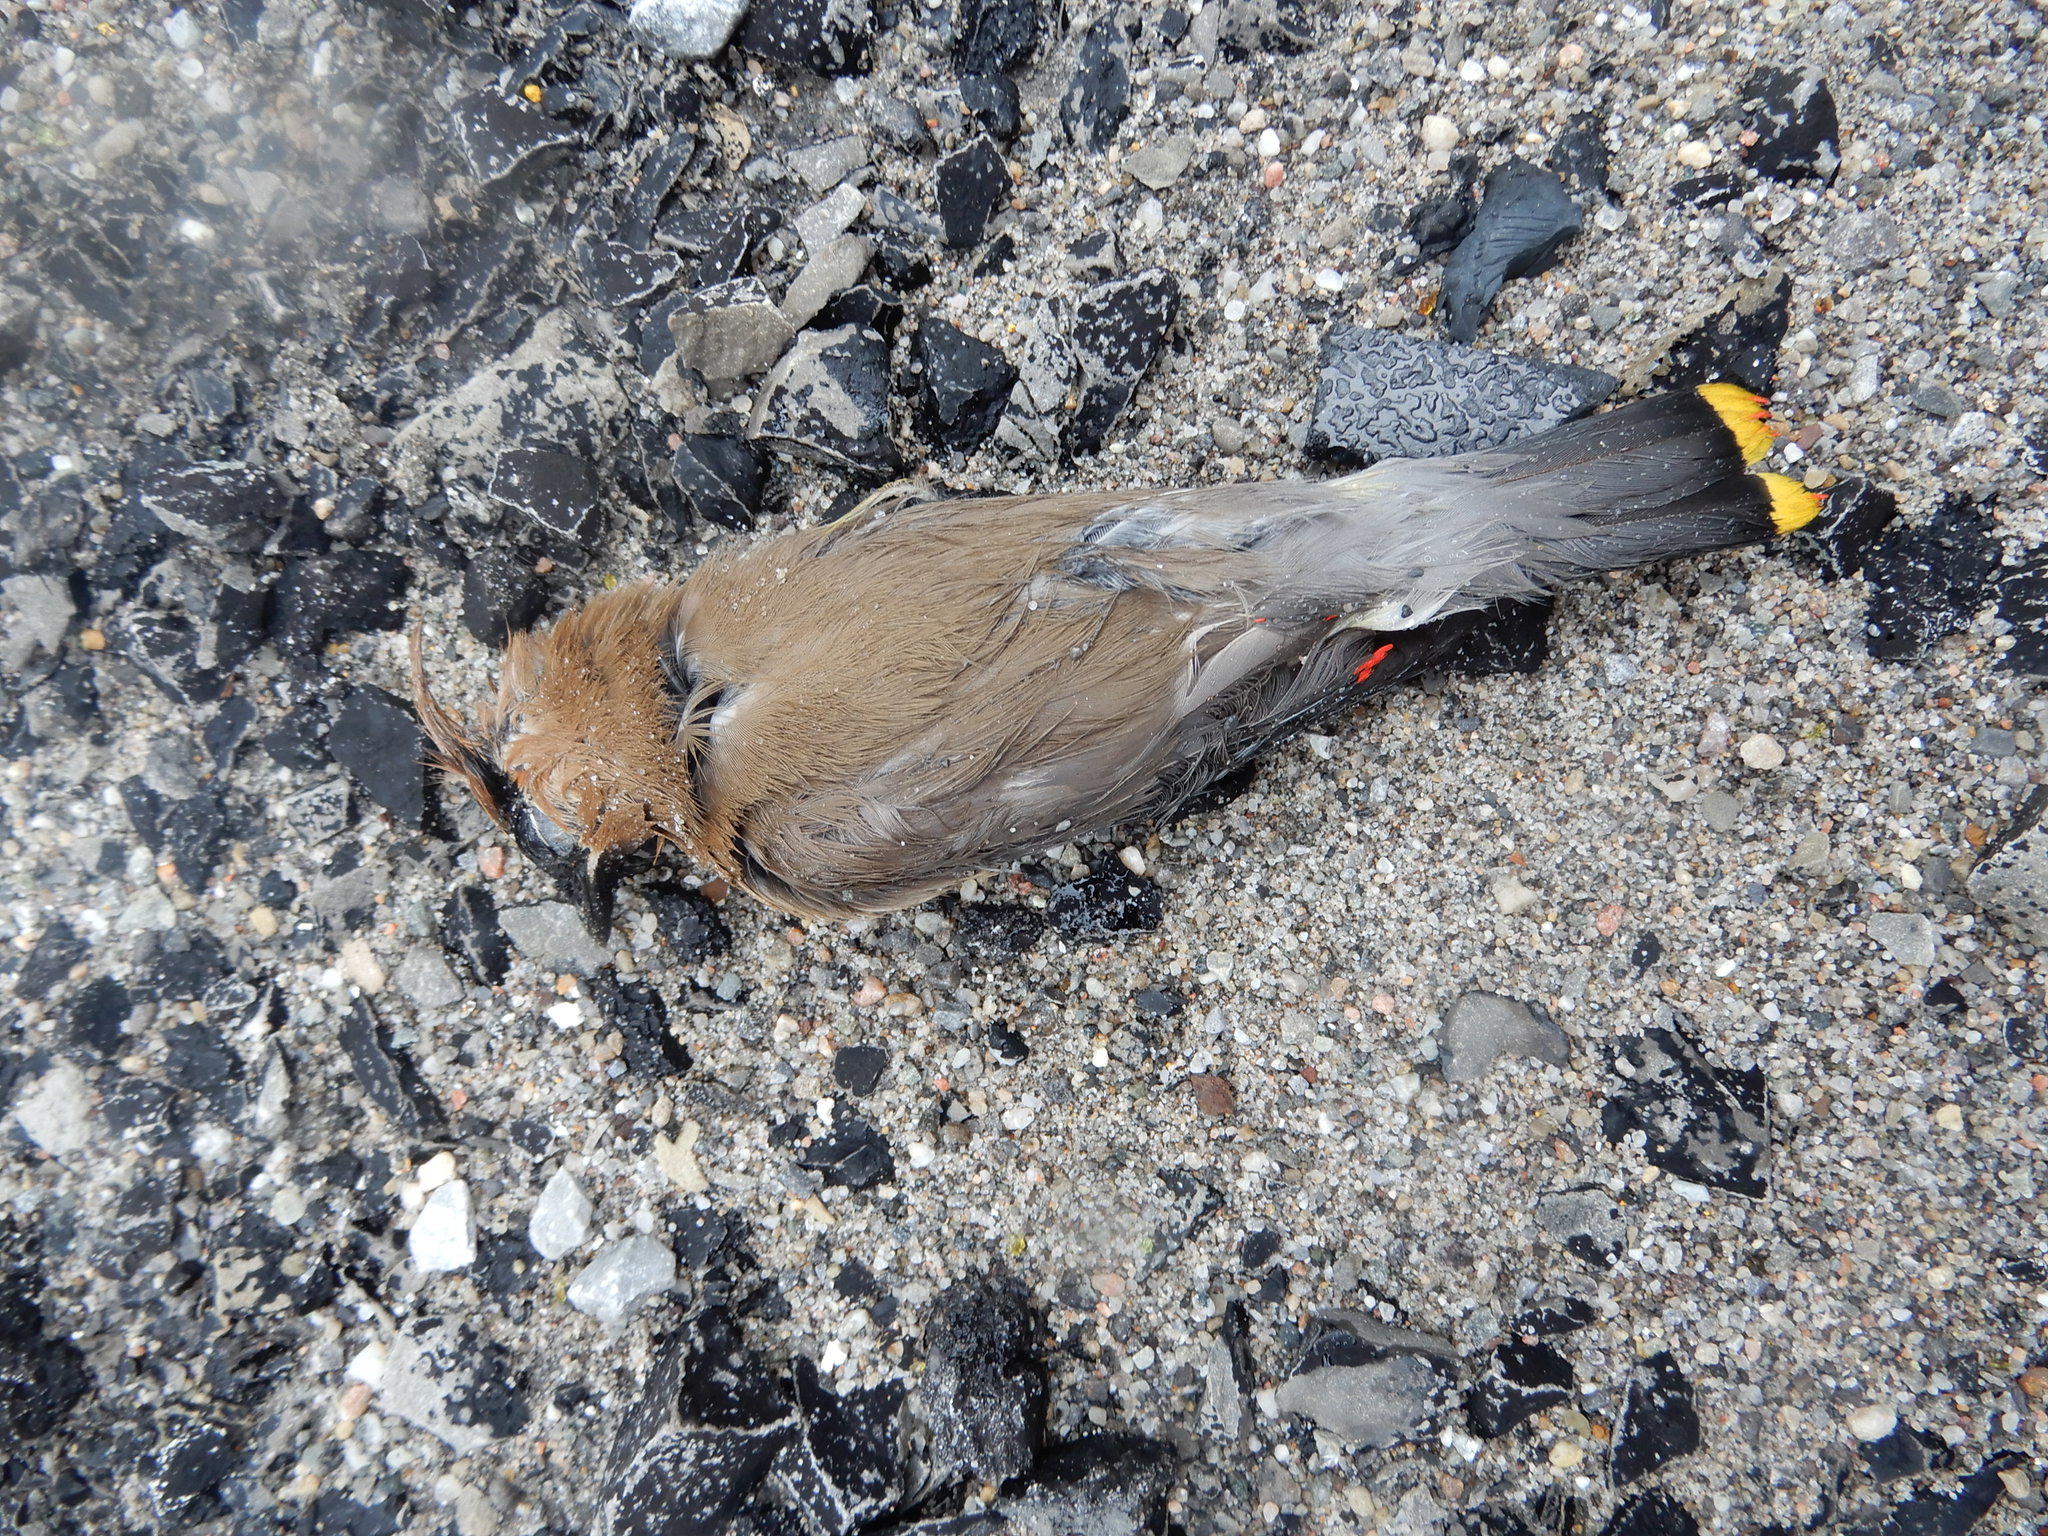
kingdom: Animalia
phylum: Chordata
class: Aves
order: Passeriformes
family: Bombycillidae
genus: Bombycilla
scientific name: Bombycilla cedrorum
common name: Cedar waxwing
